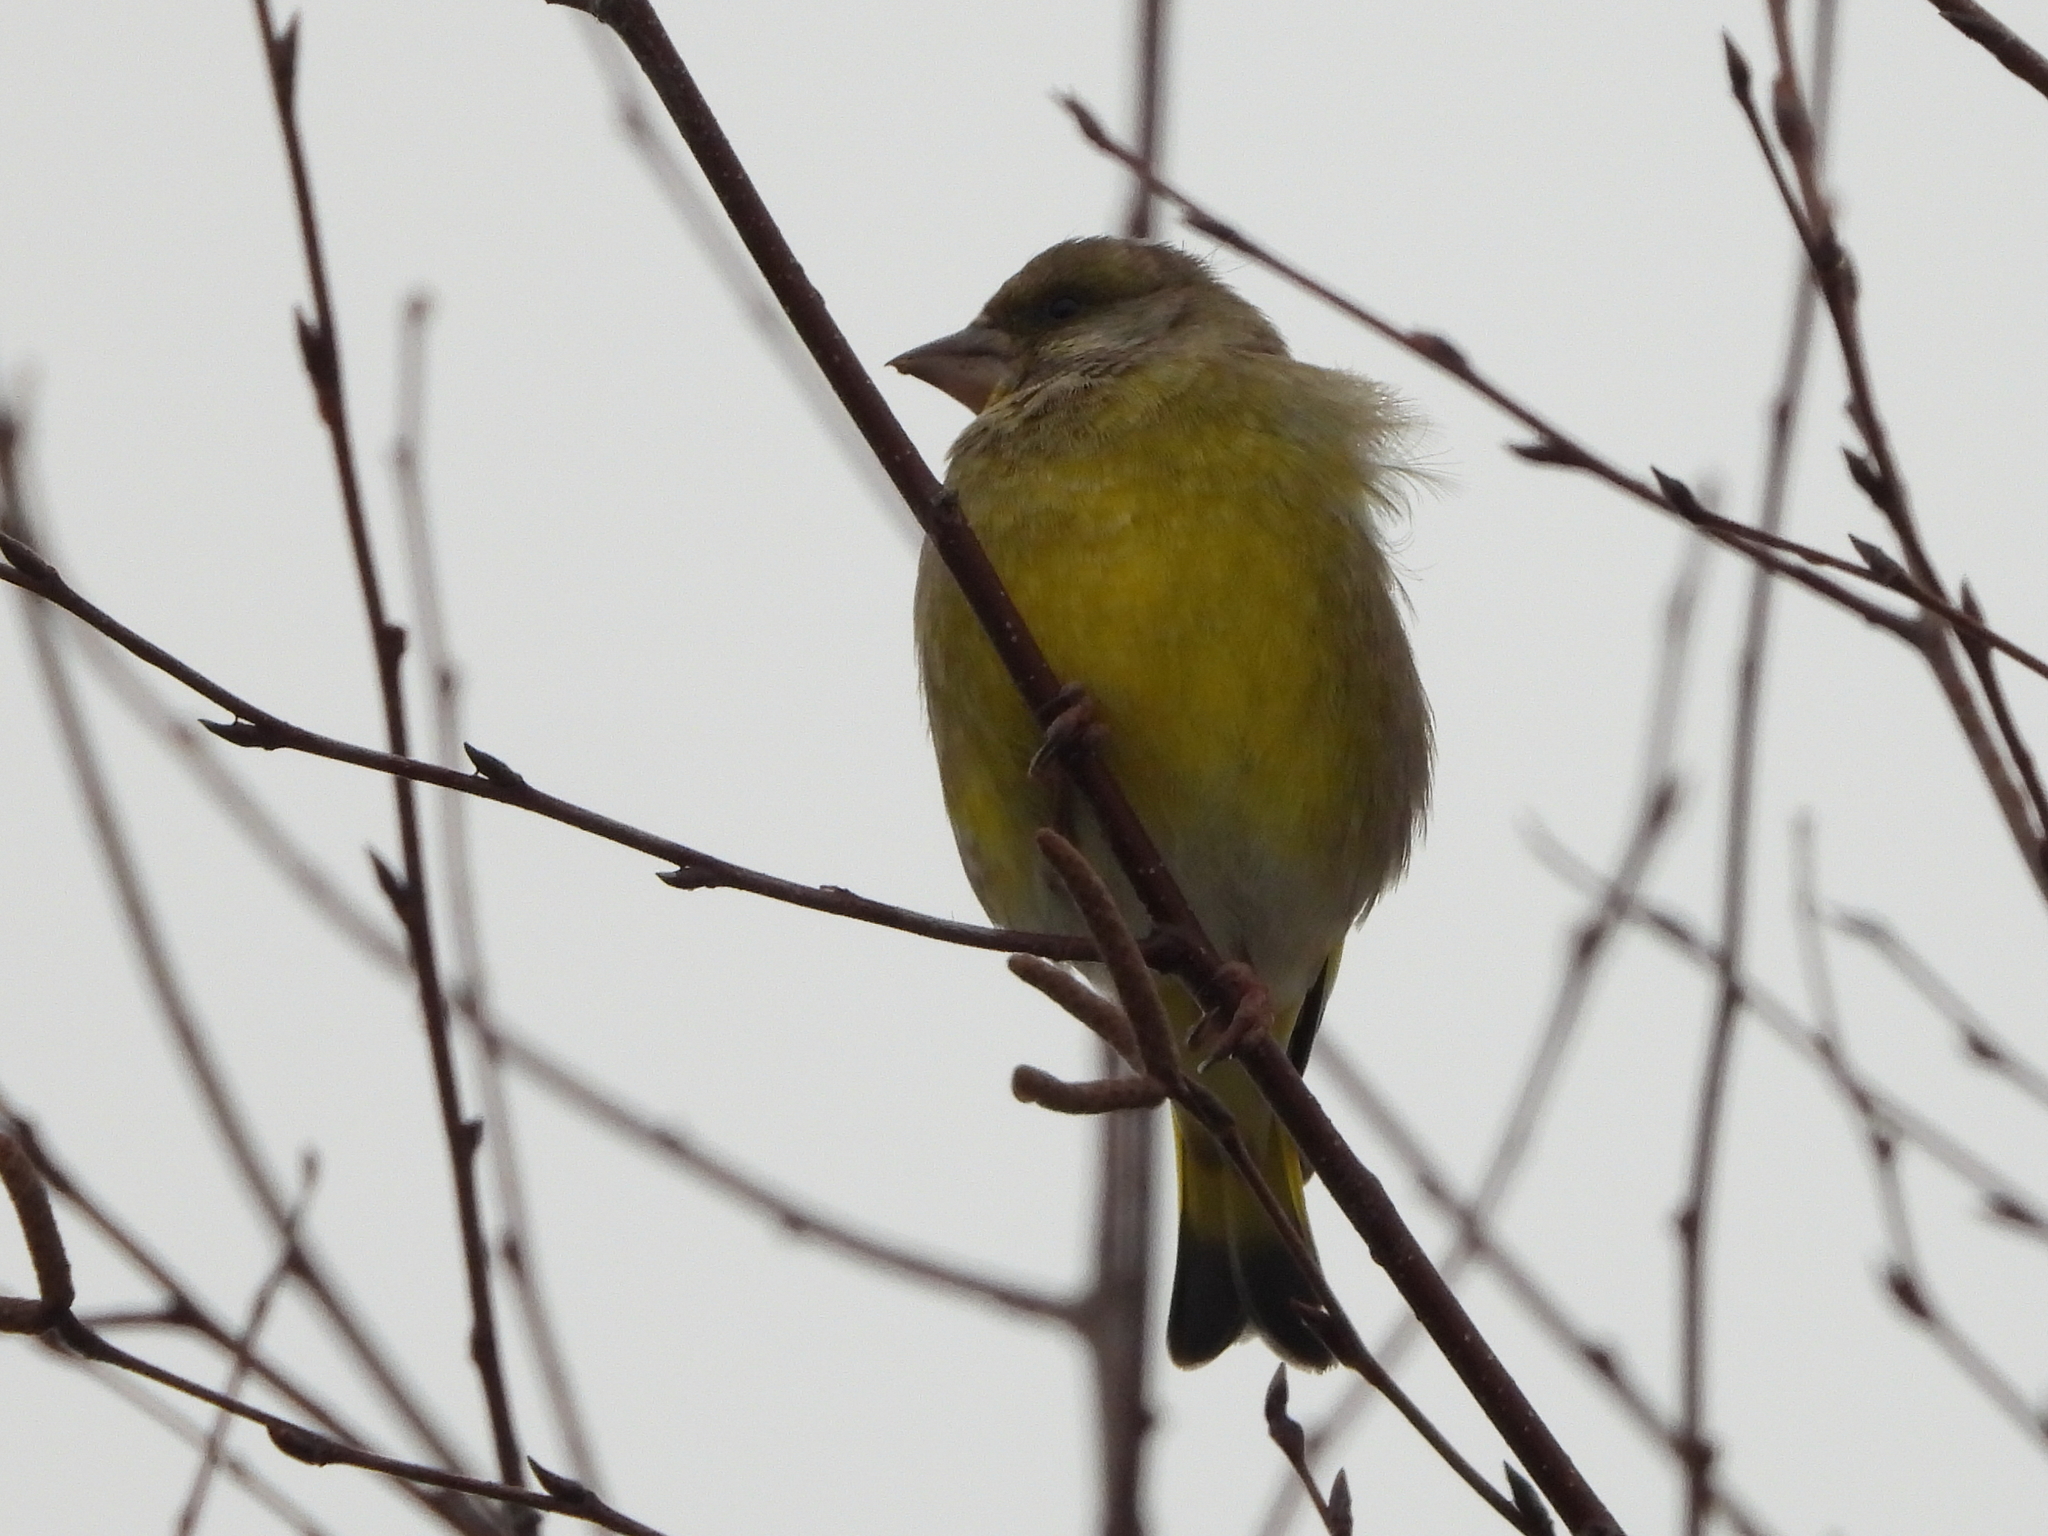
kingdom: Plantae
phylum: Tracheophyta
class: Liliopsida
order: Poales
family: Poaceae
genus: Chloris
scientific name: Chloris chloris
